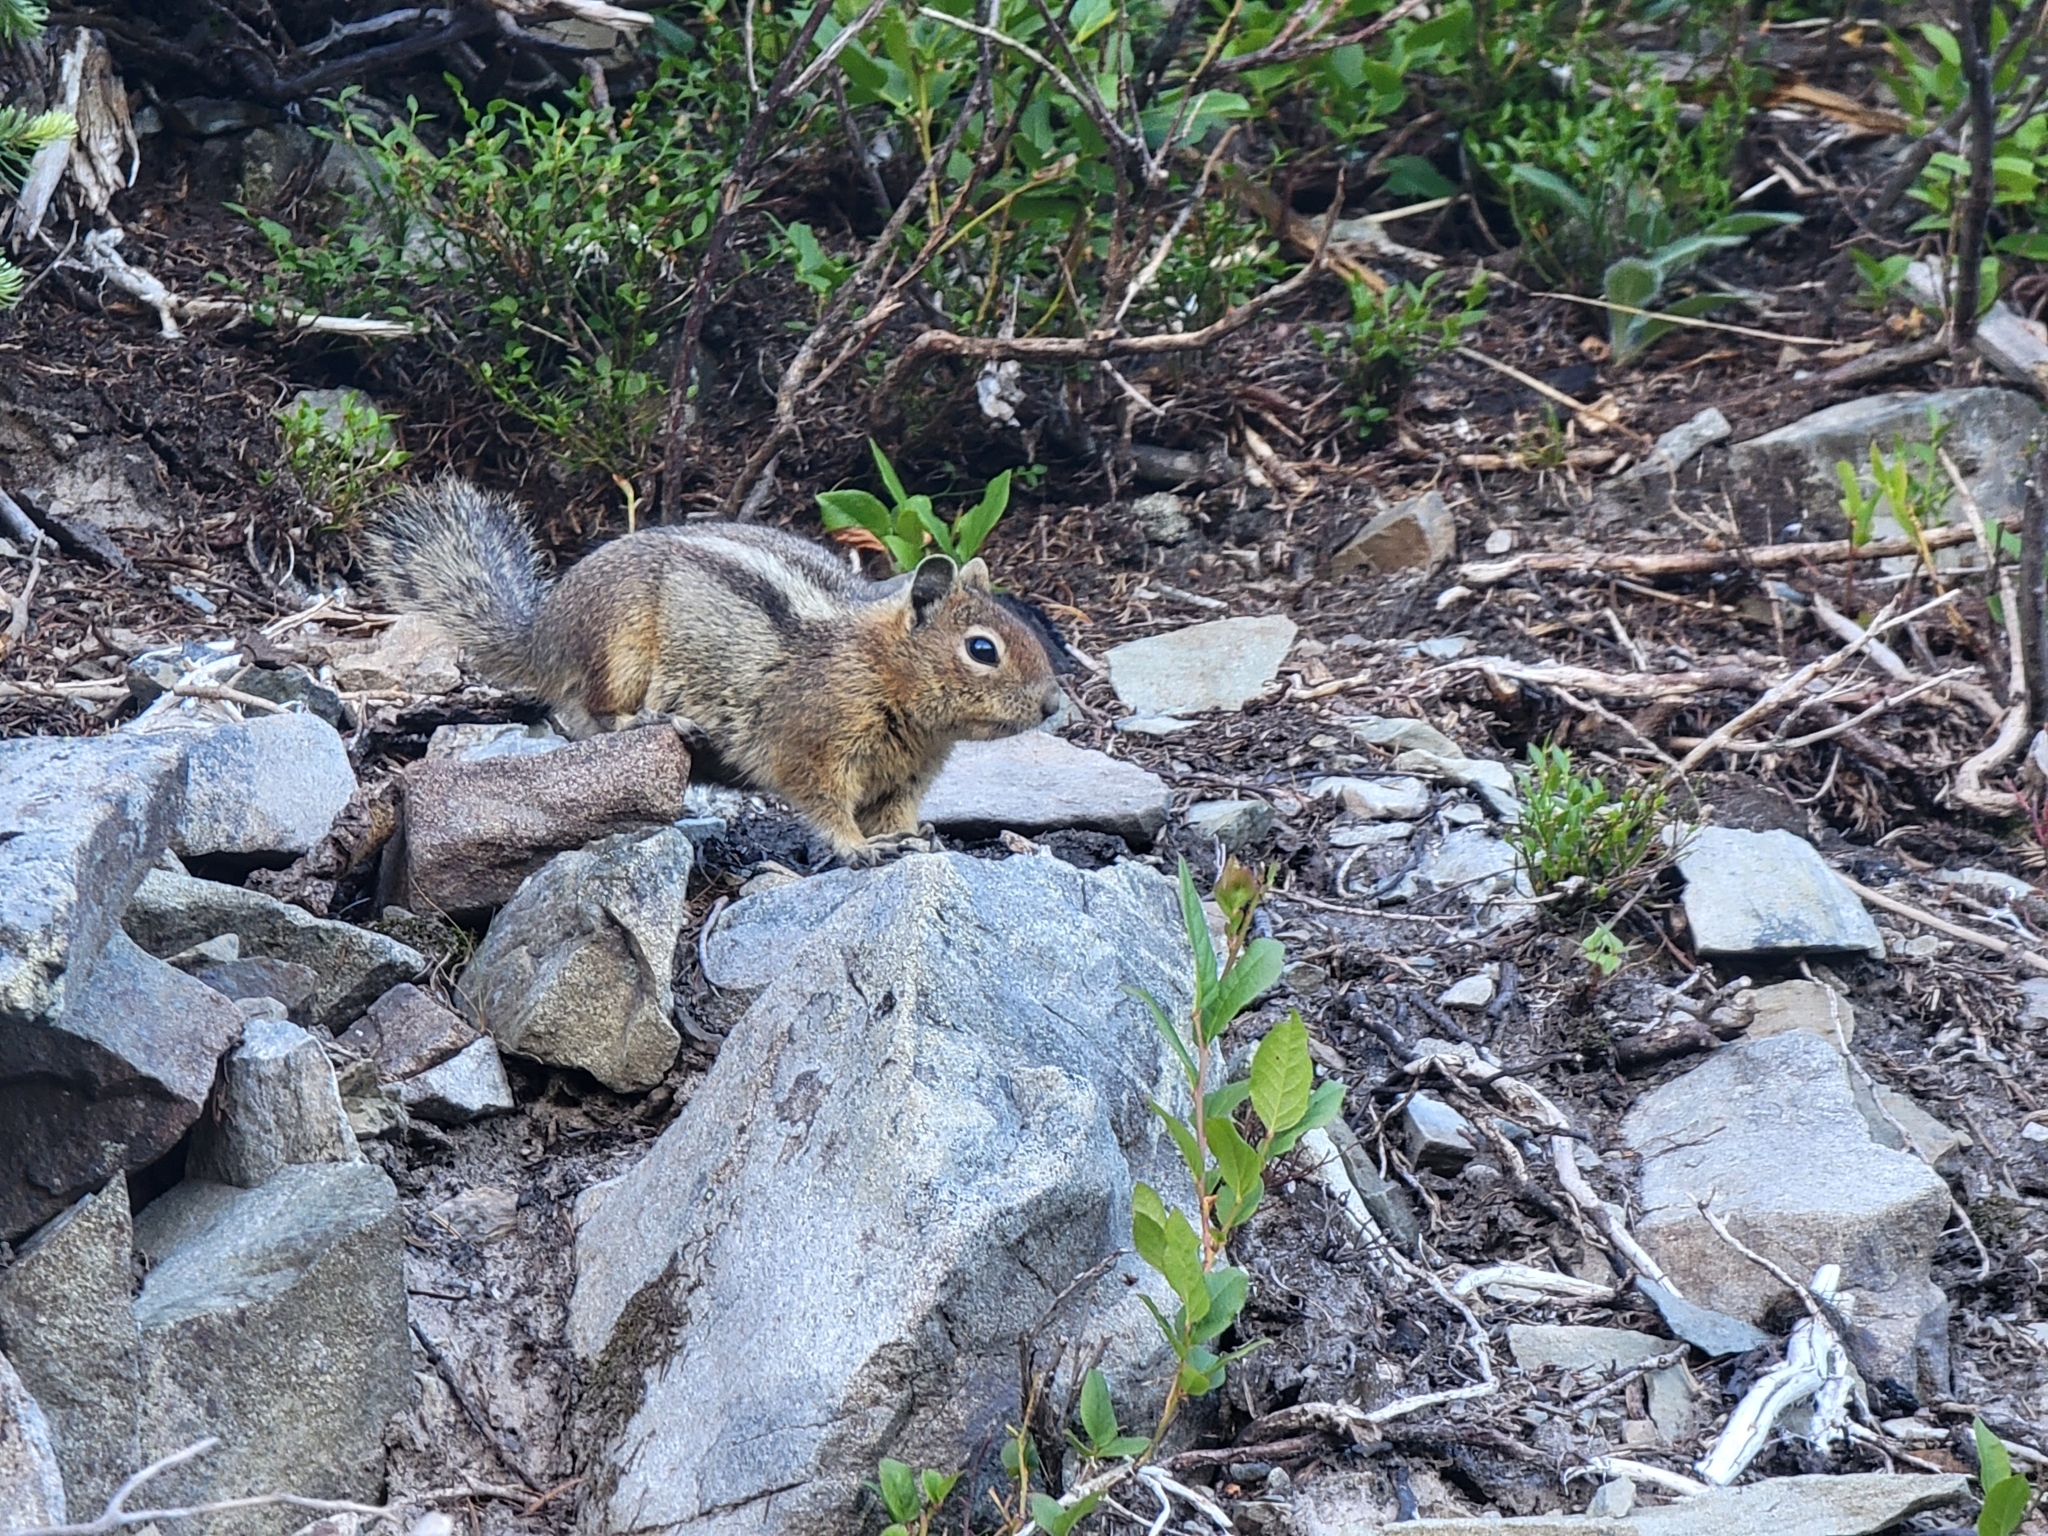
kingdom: Animalia
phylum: Chordata
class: Mammalia
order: Rodentia
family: Sciuridae
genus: Callospermophilus
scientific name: Callospermophilus saturatus
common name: Cascade golden-mantled ground squirrel
